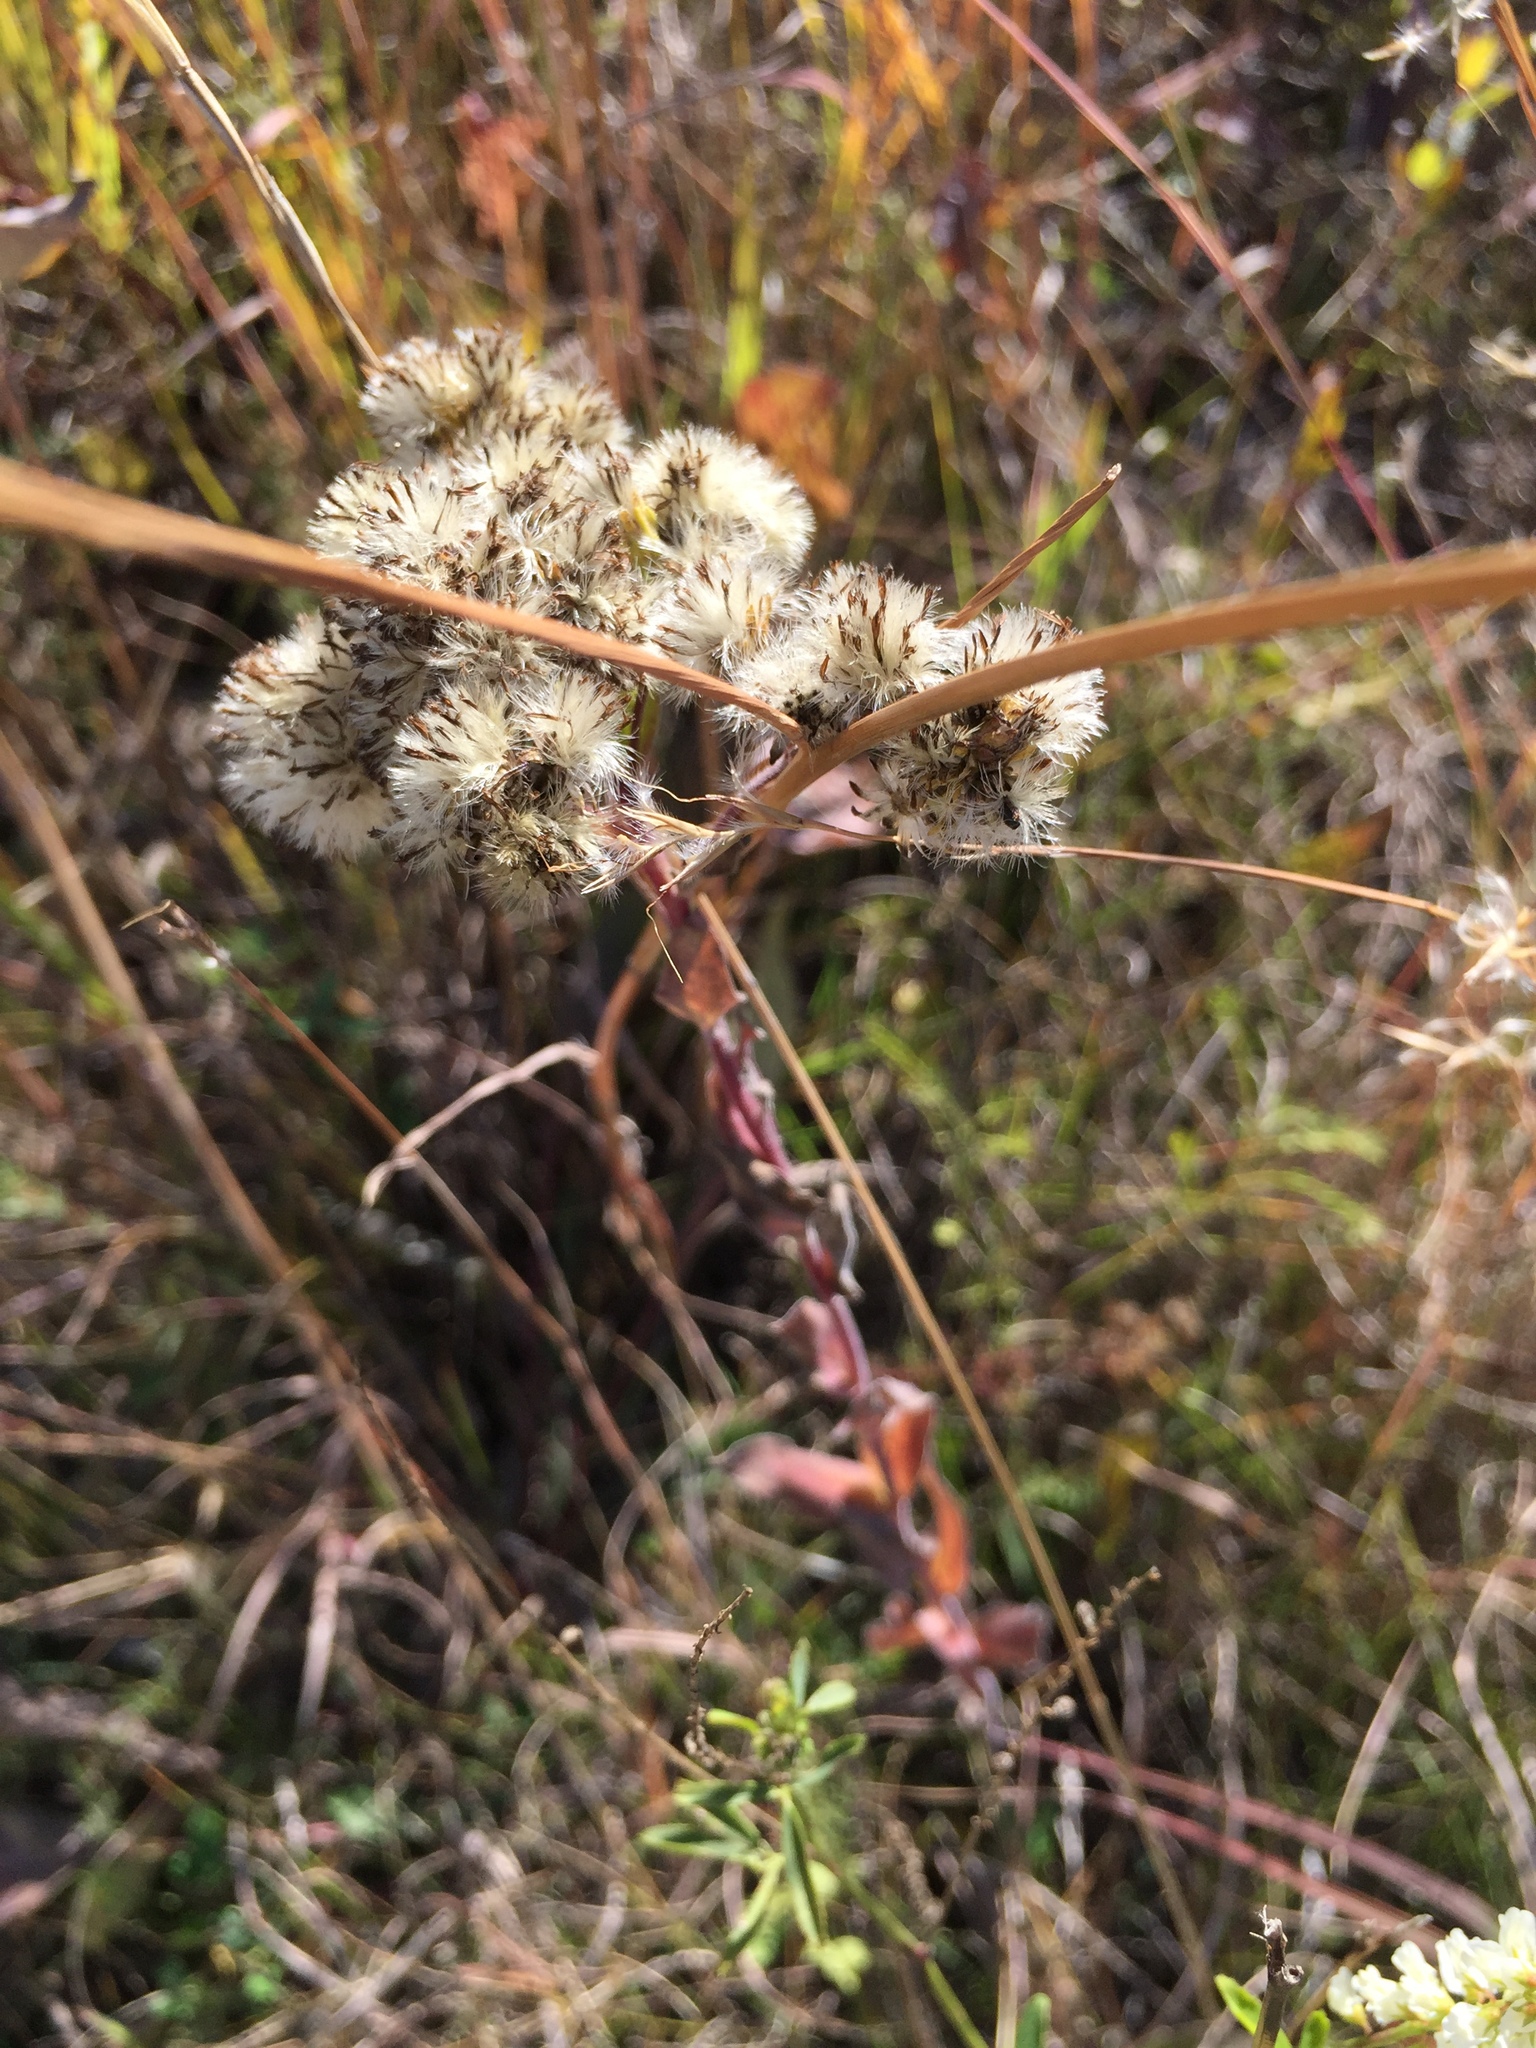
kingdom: Plantae
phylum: Tracheophyta
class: Magnoliopsida
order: Asterales
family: Asteraceae
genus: Solidago
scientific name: Solidago rigida
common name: Rigid goldenrod
